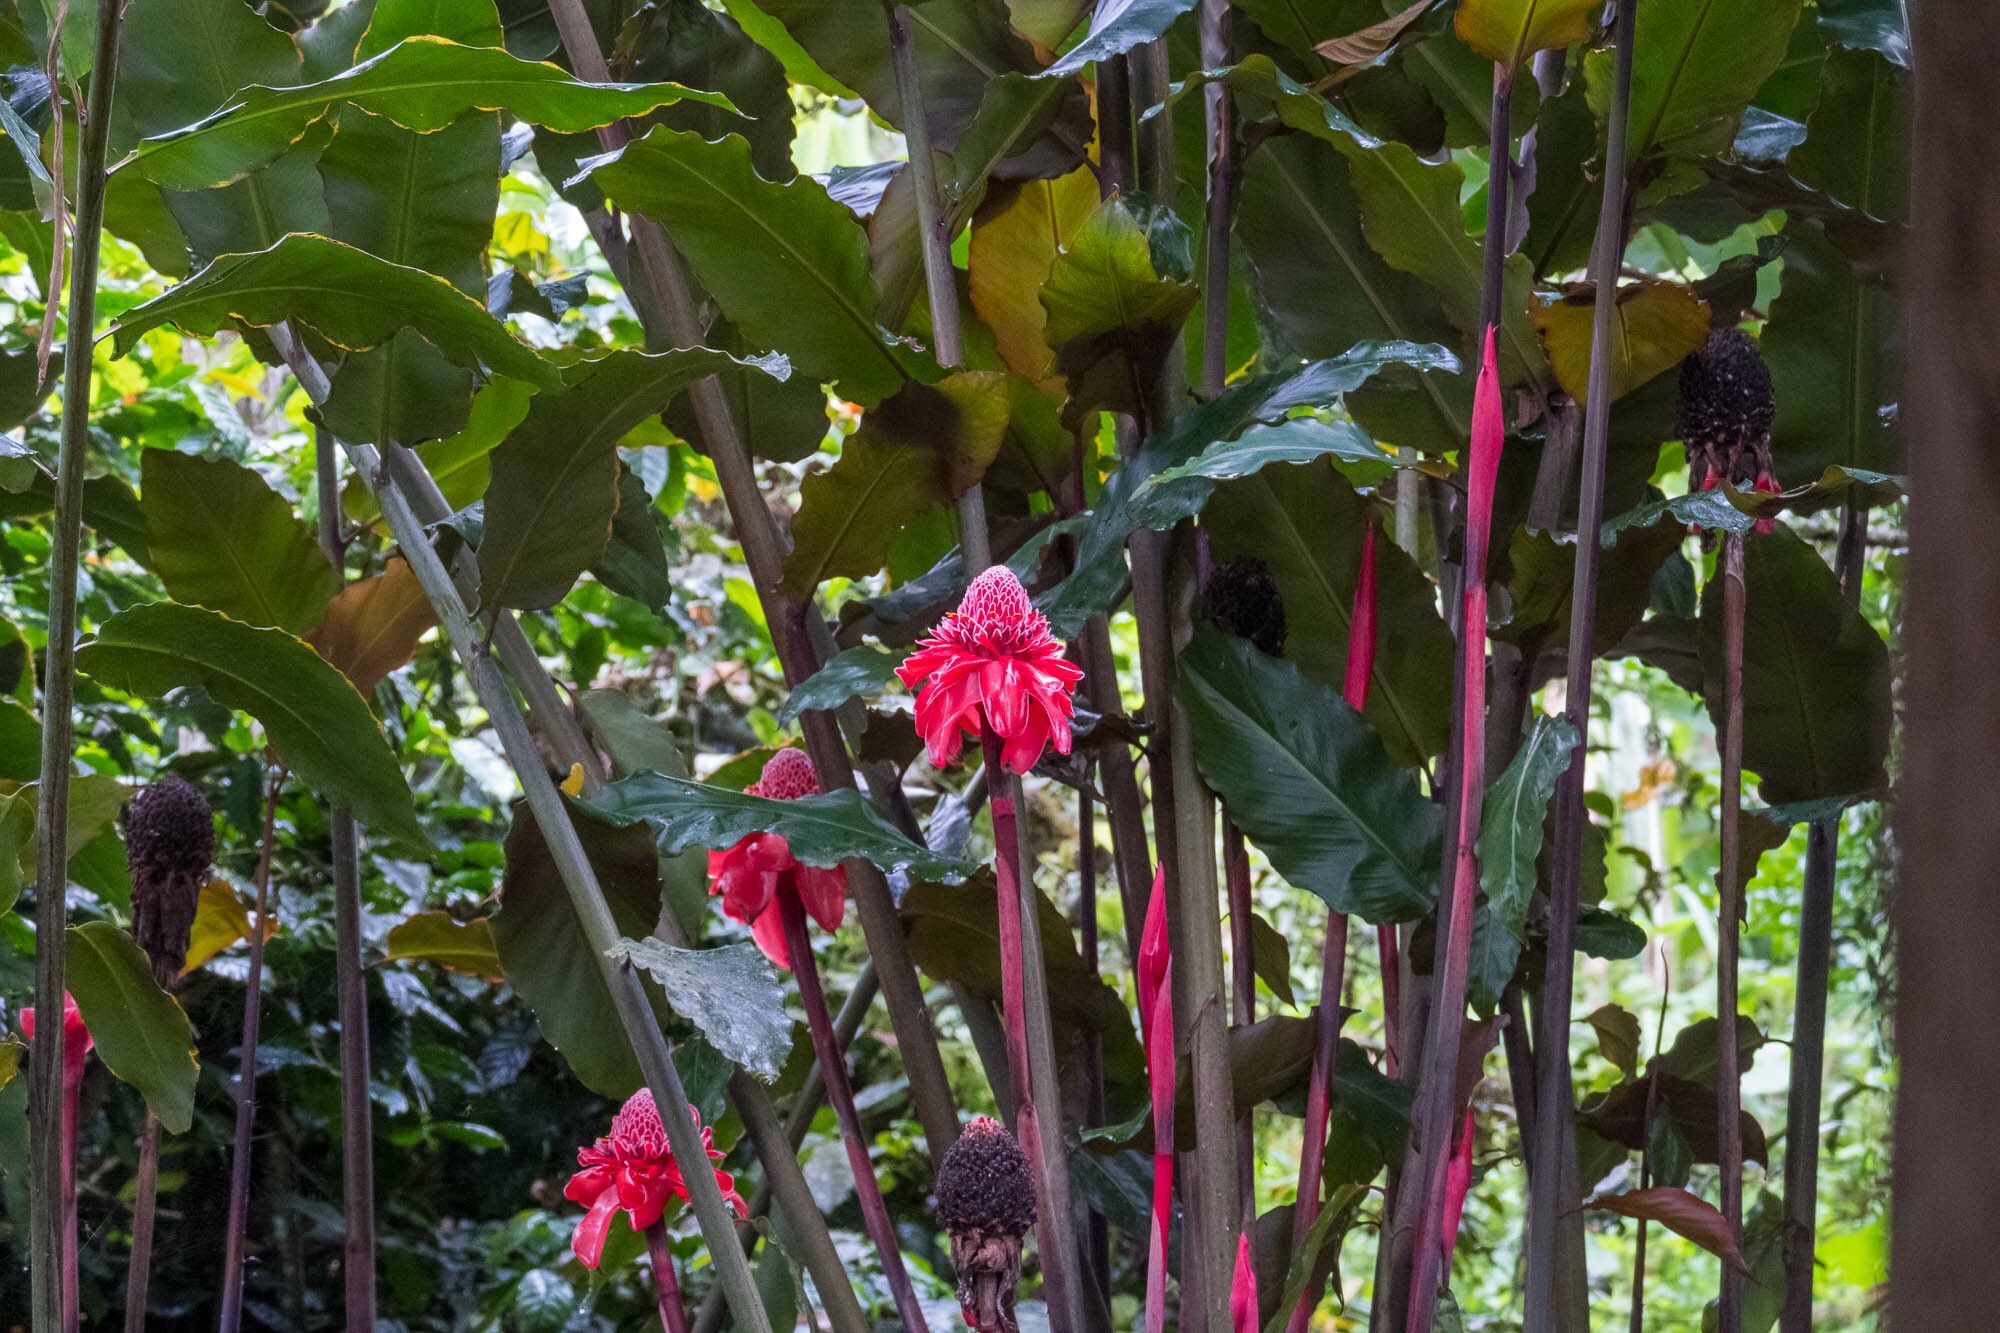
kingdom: Plantae
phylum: Tracheophyta
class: Liliopsida
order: Zingiberales
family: Zingiberaceae
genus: Etlingera
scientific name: Etlingera elatior
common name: Philippine waxflower
